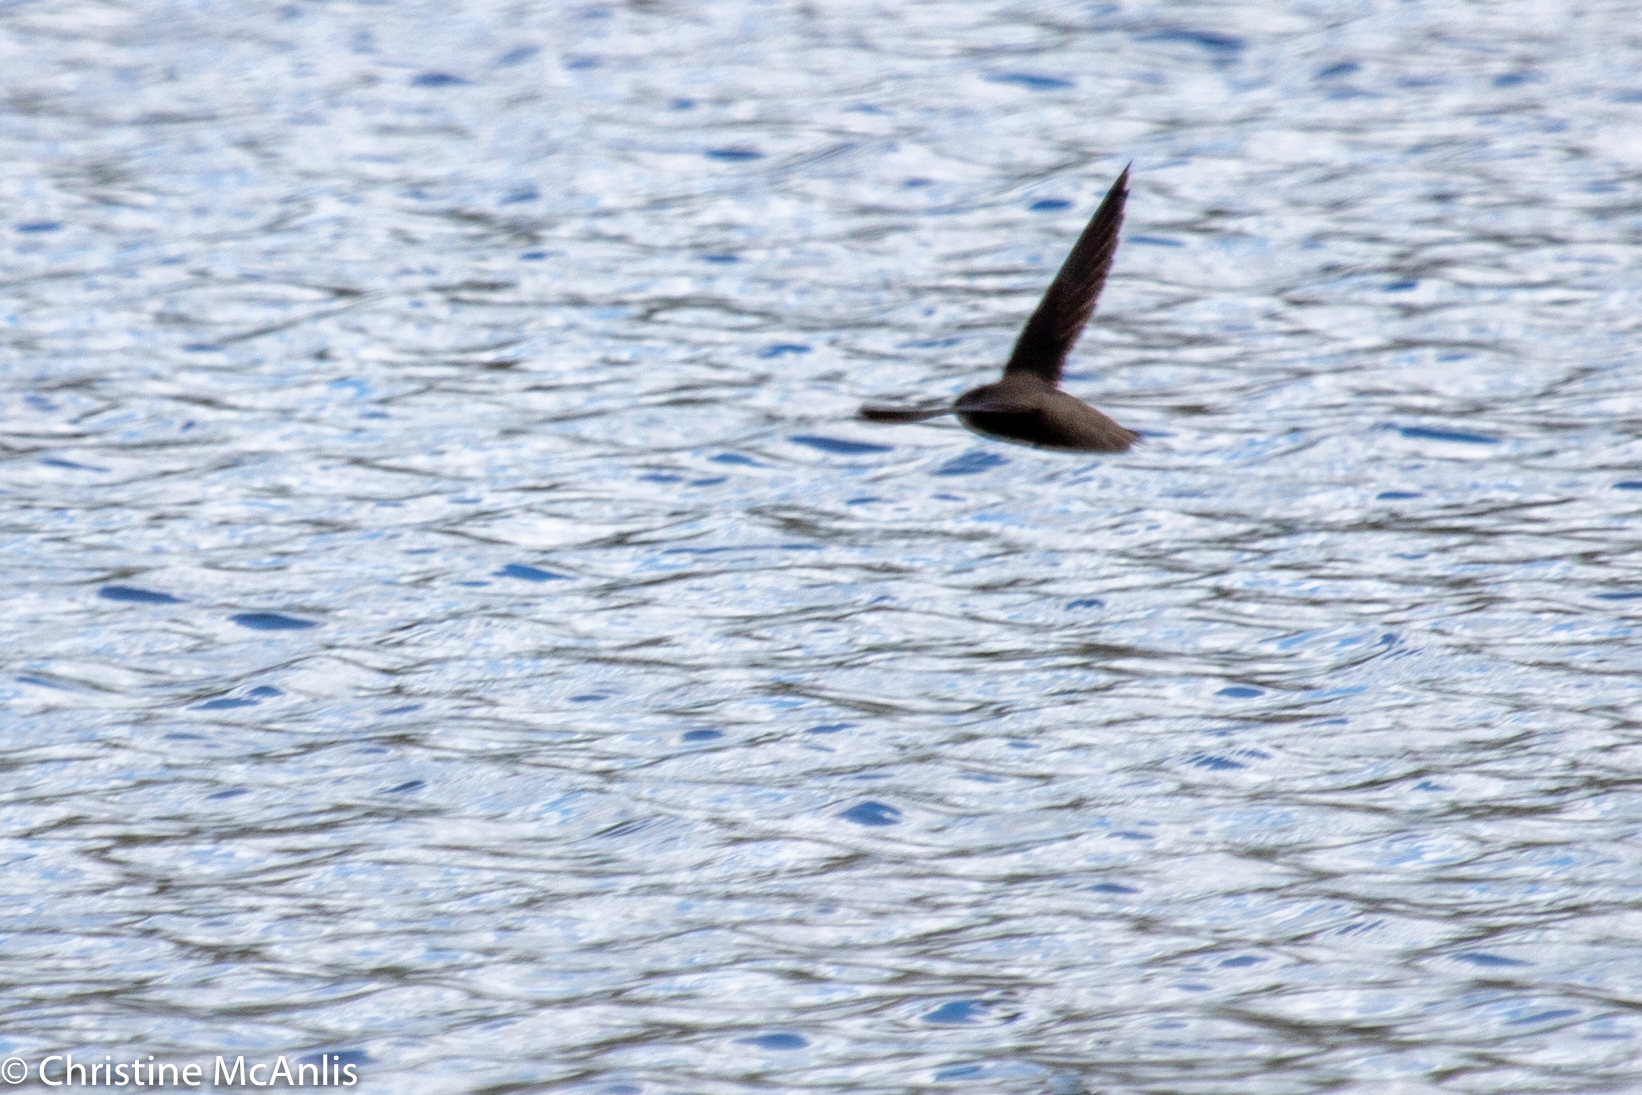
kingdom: Animalia
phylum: Chordata
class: Aves
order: Apodiformes
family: Apodidae
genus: Chaetura
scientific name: Chaetura pelagica
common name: Chimney swift
